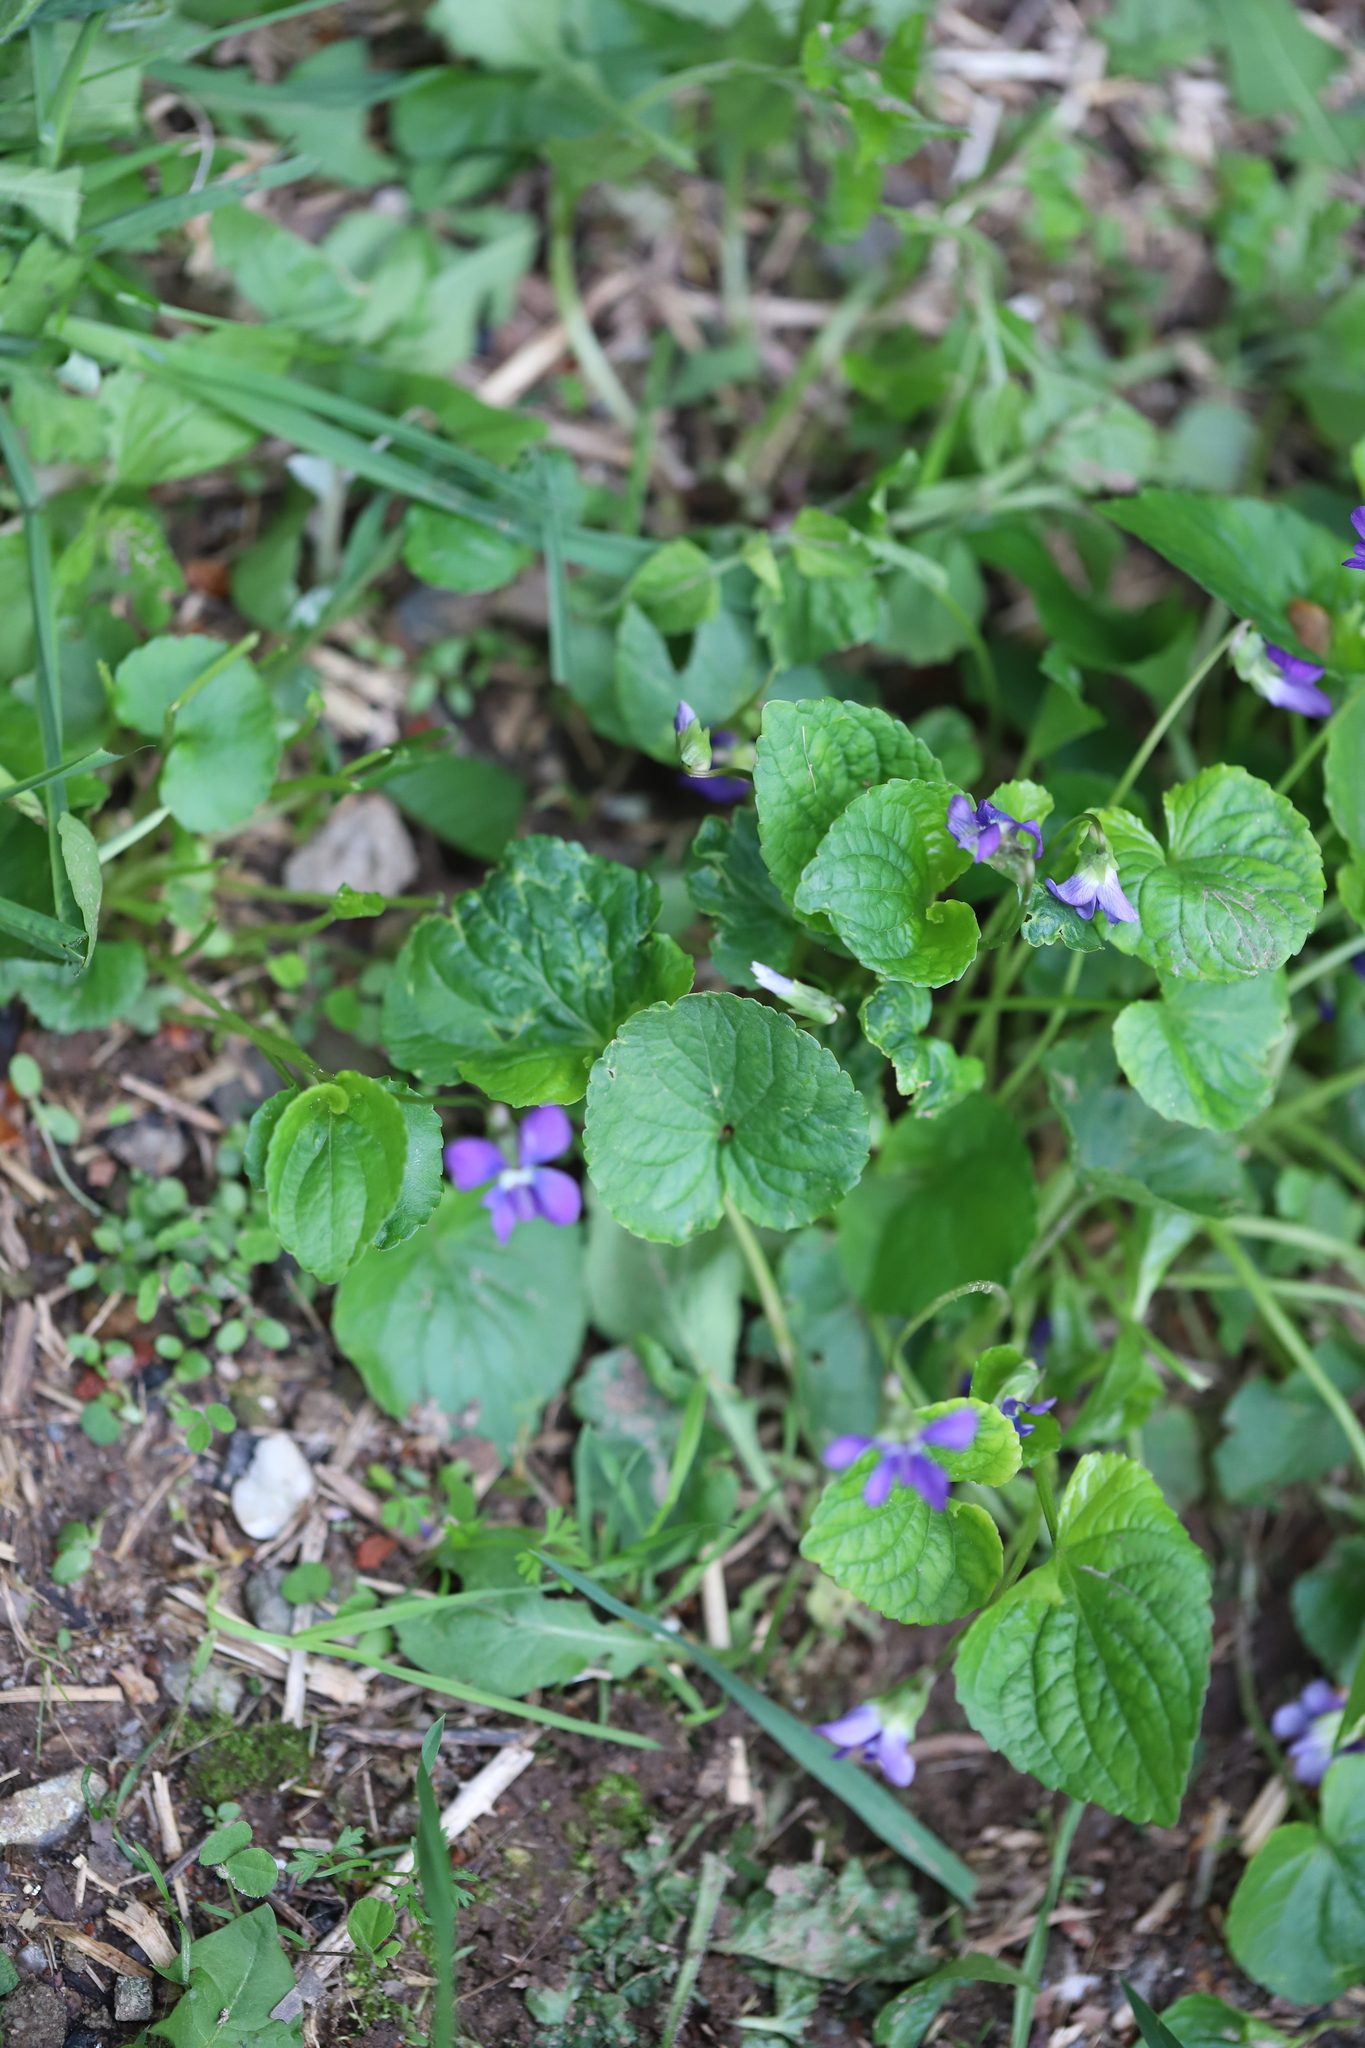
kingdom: Plantae
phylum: Tracheophyta
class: Magnoliopsida
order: Malpighiales
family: Violaceae
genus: Viola
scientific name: Viola sororia
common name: Dooryard violet
